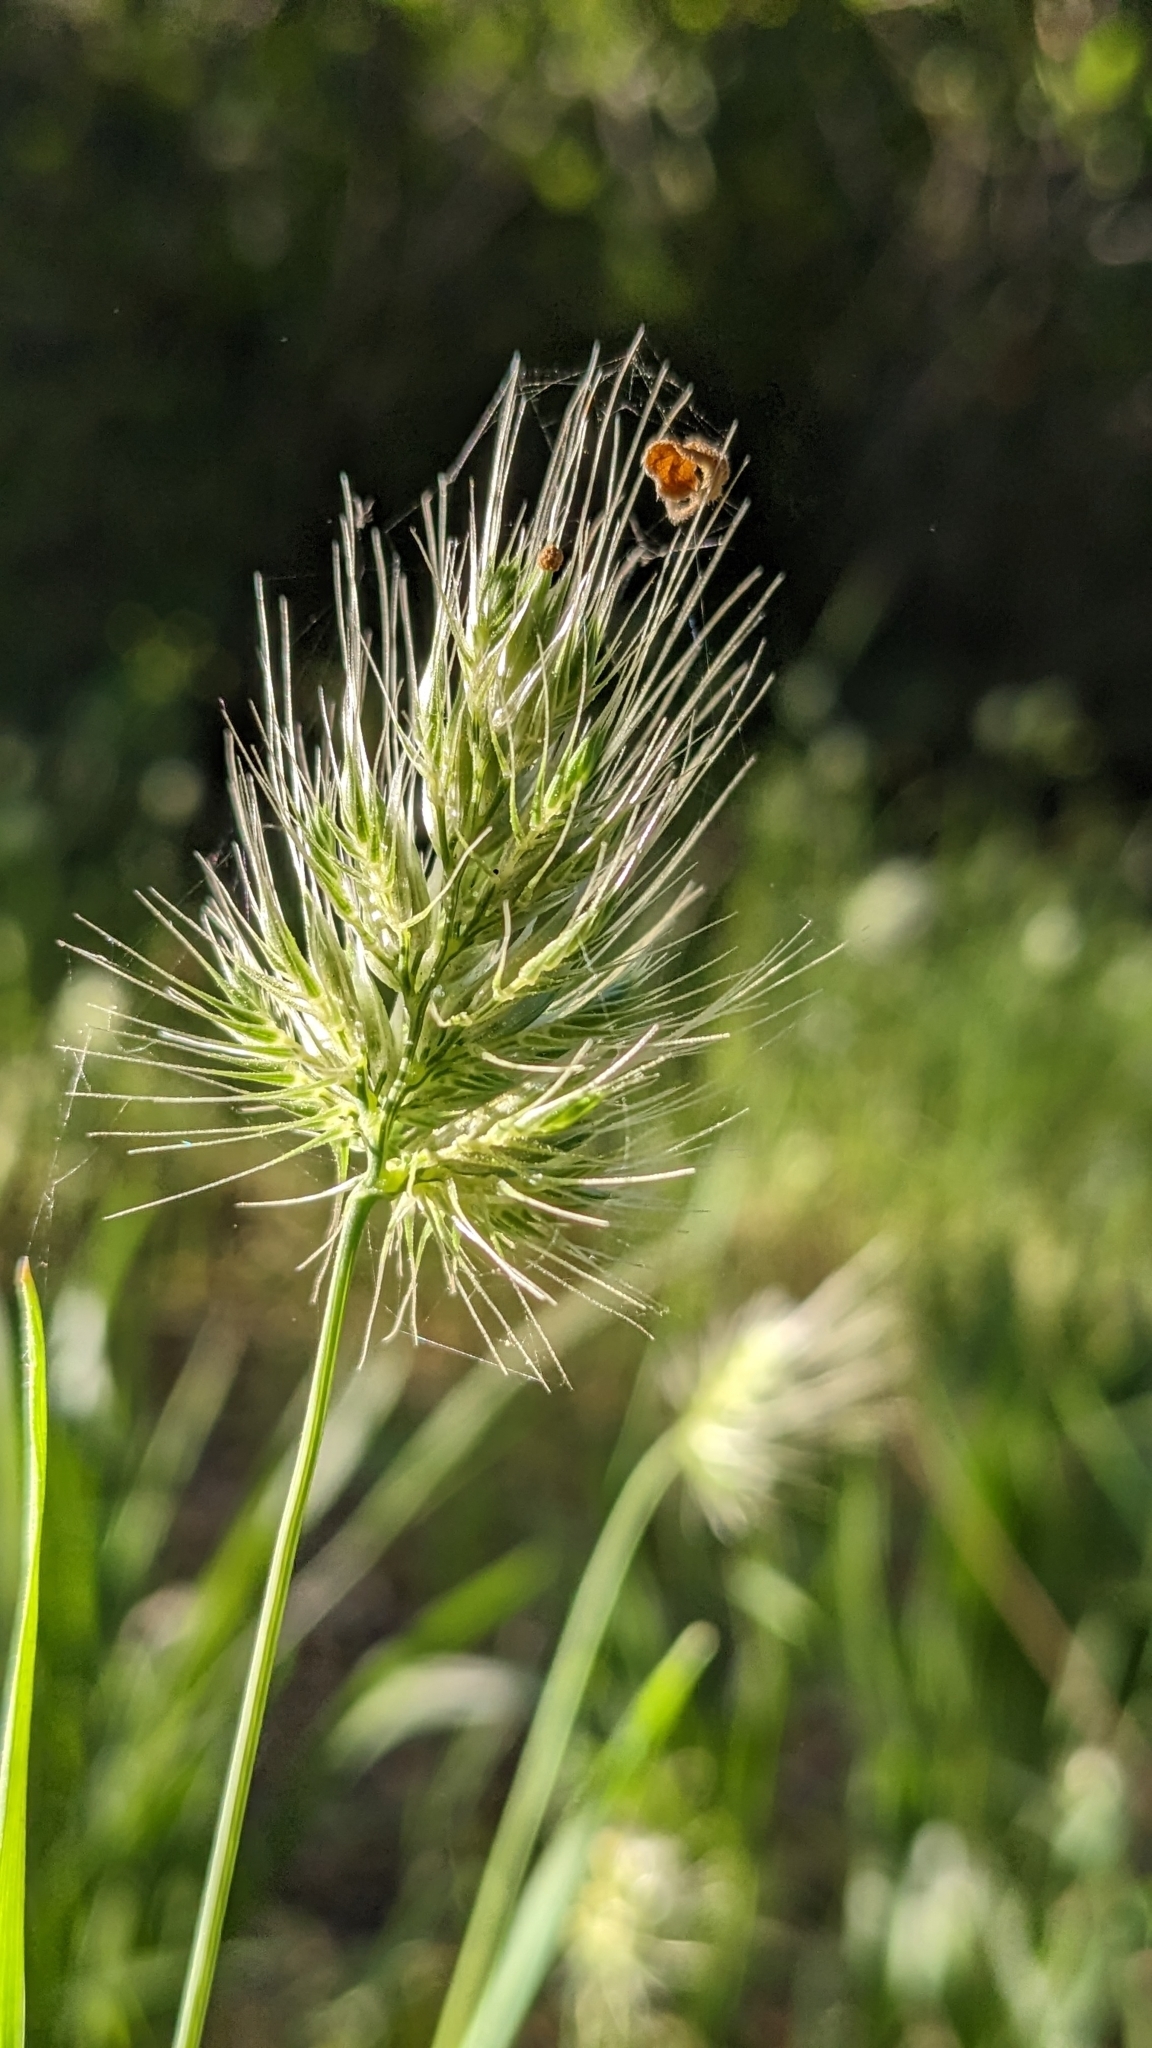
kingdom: Plantae
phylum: Tracheophyta
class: Liliopsida
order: Poales
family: Poaceae
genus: Cynosurus
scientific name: Cynosurus echinatus
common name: Rough dog's-tail
